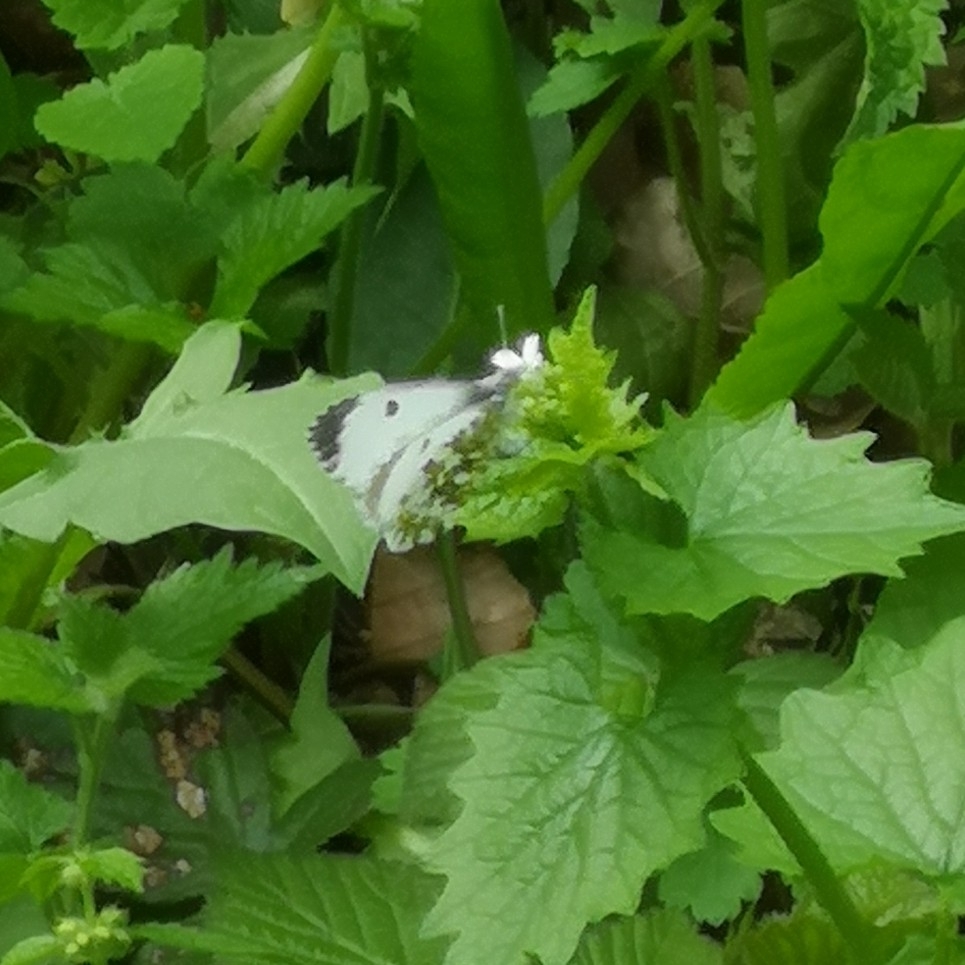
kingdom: Animalia
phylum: Arthropoda
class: Insecta
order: Lepidoptera
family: Pieridae
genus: Anthocharis
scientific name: Anthocharis cardamines
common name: Orange-tip
